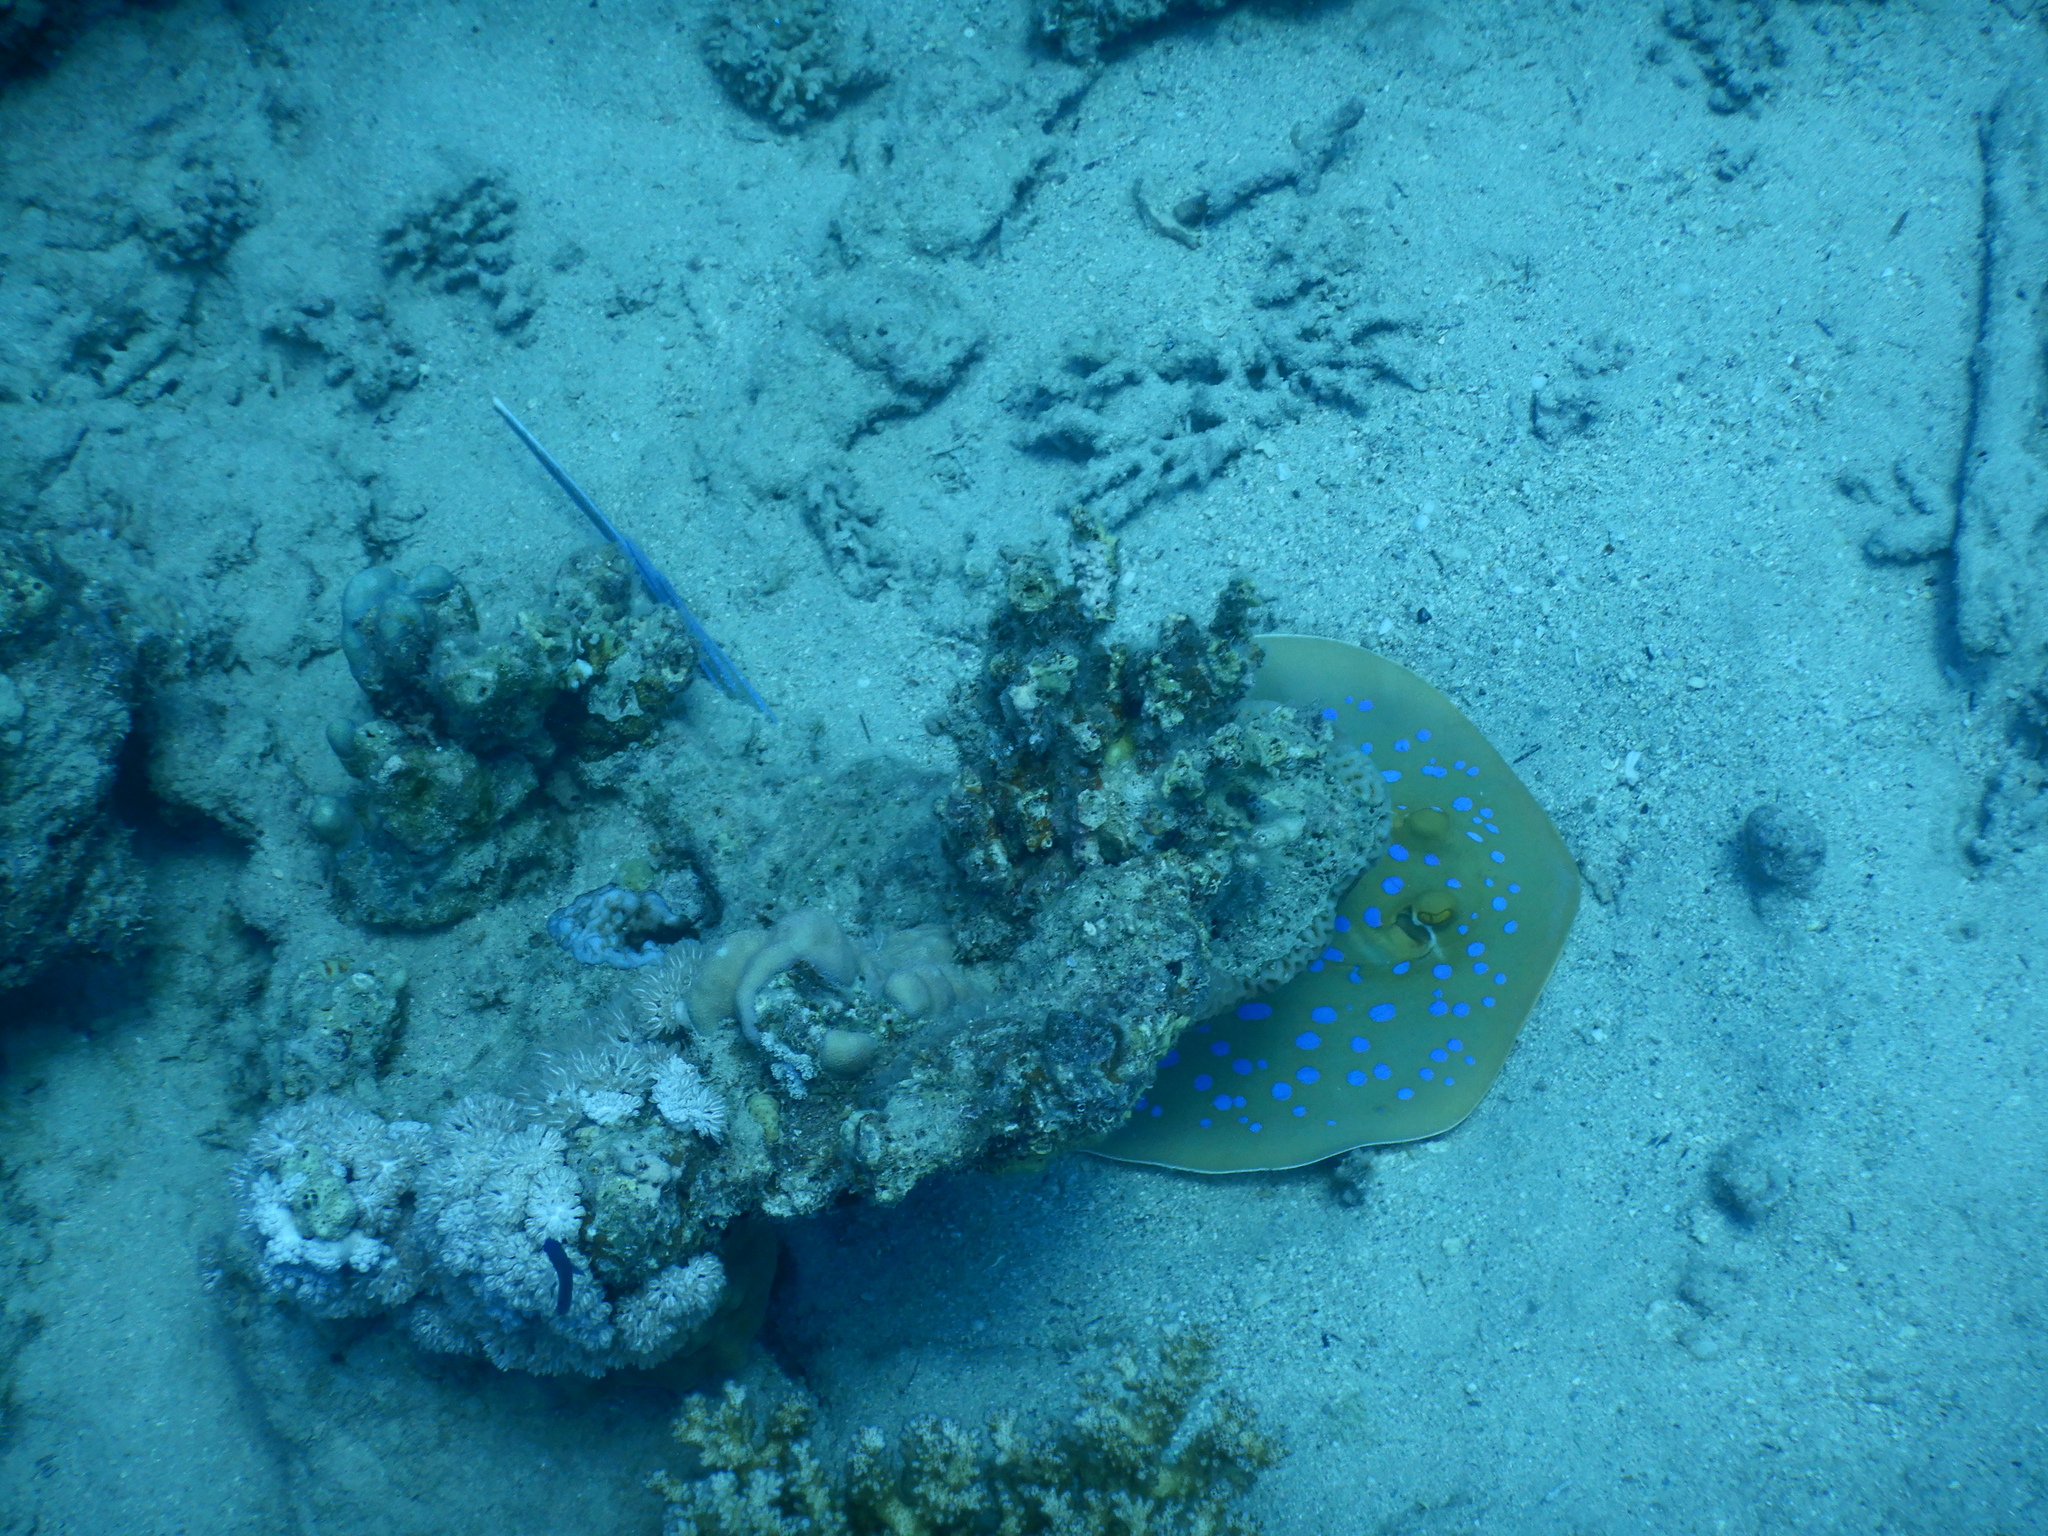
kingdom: Animalia
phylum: Chordata
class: Elasmobranchii
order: Myliobatiformes
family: Dasyatidae
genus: Taeniura
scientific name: Taeniura lymma
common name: Bluespotted ribbontail ray
